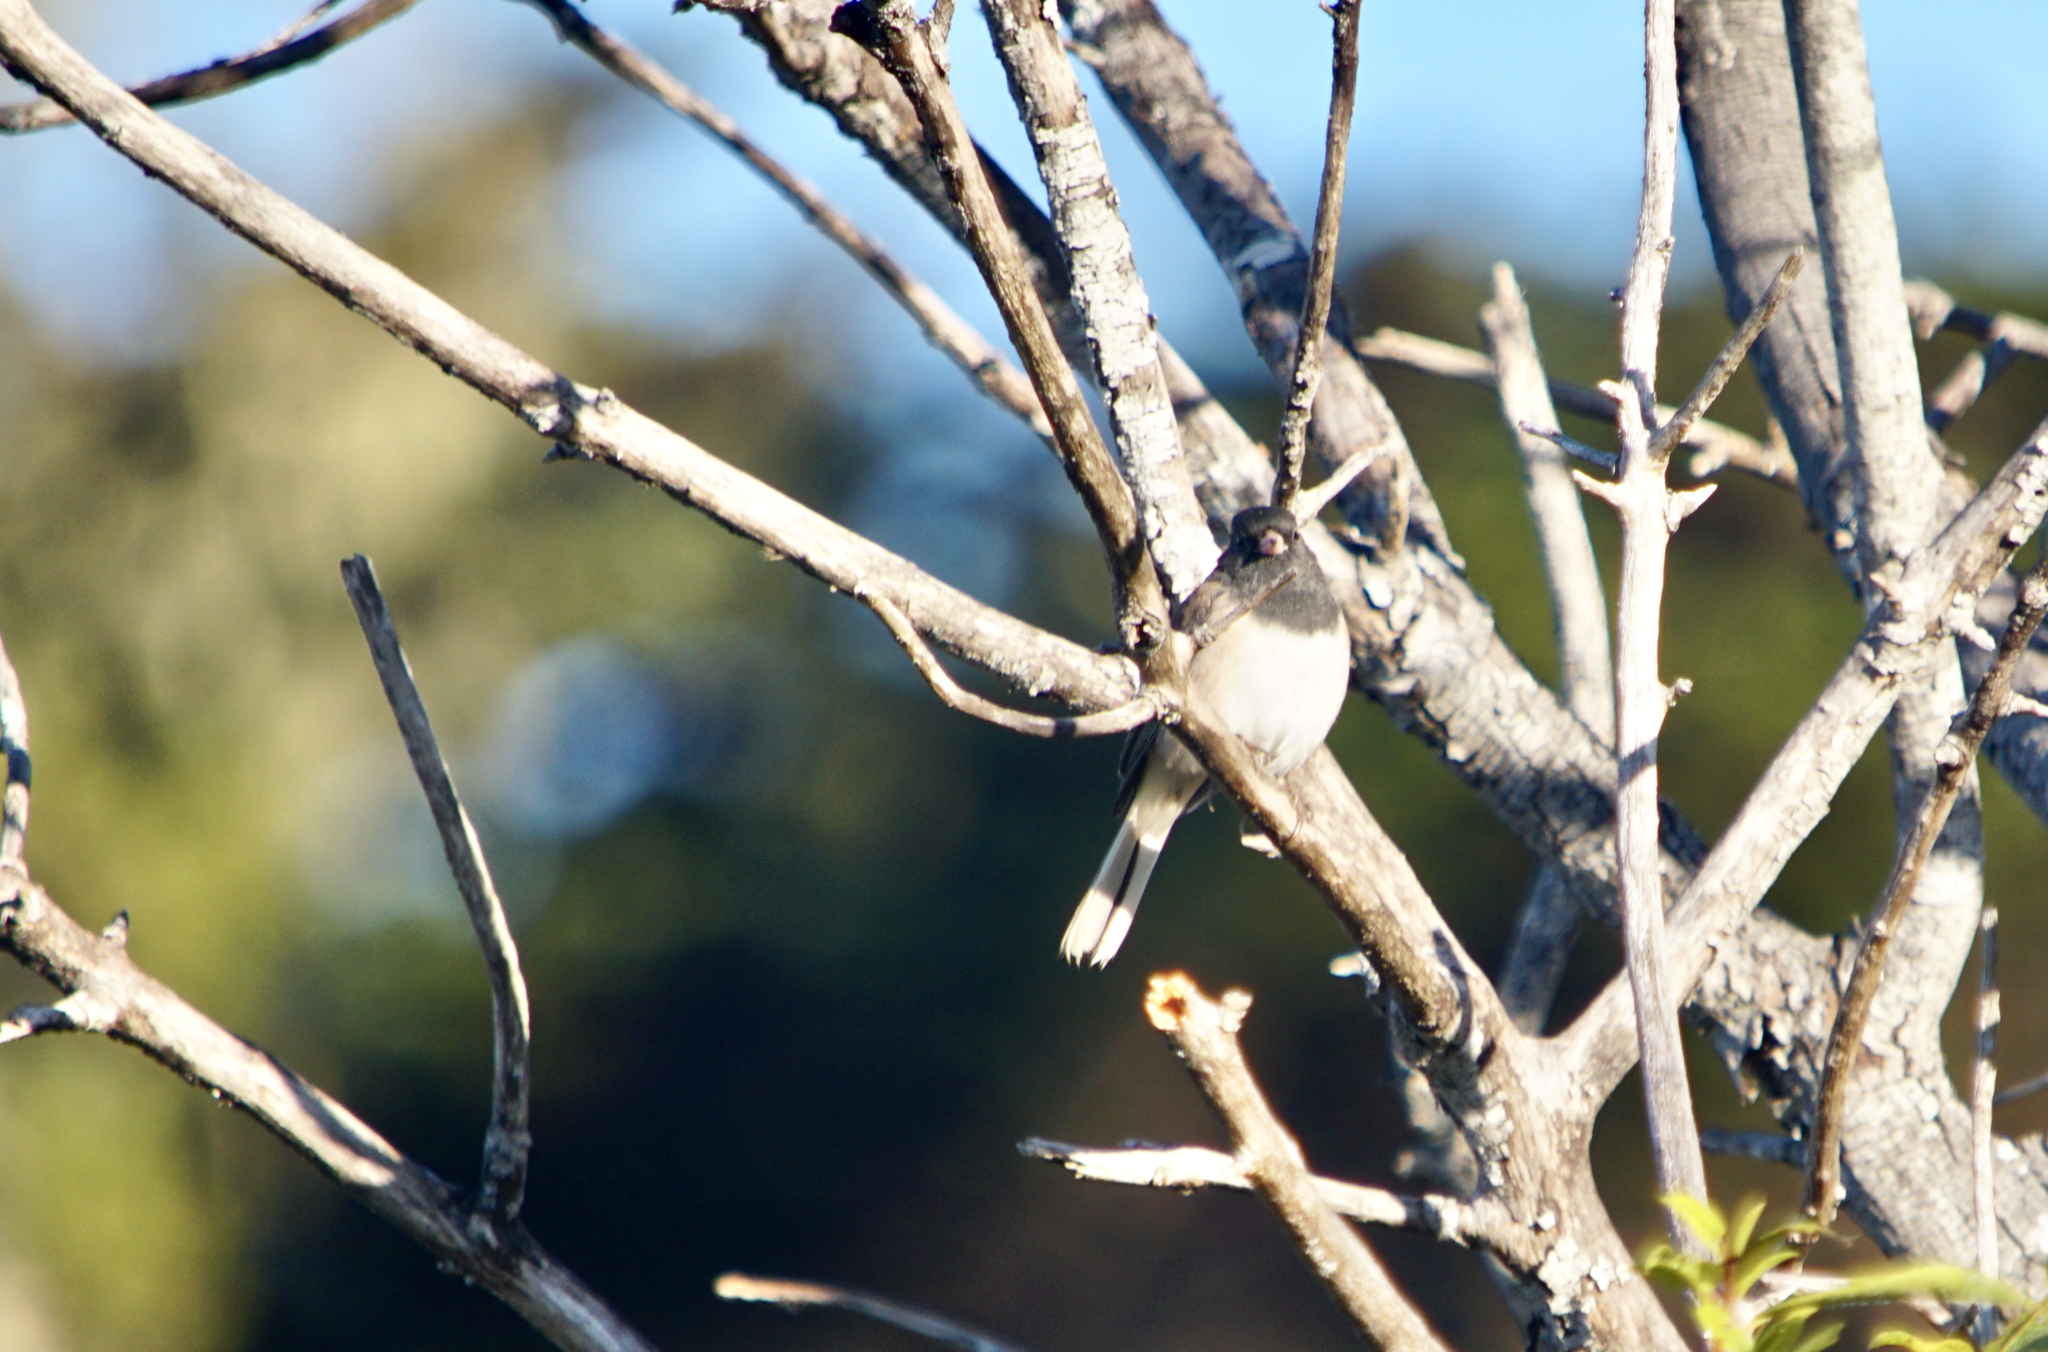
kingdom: Animalia
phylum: Chordata
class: Aves
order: Passeriformes
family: Passerellidae
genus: Junco
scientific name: Junco hyemalis
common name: Dark-eyed junco
